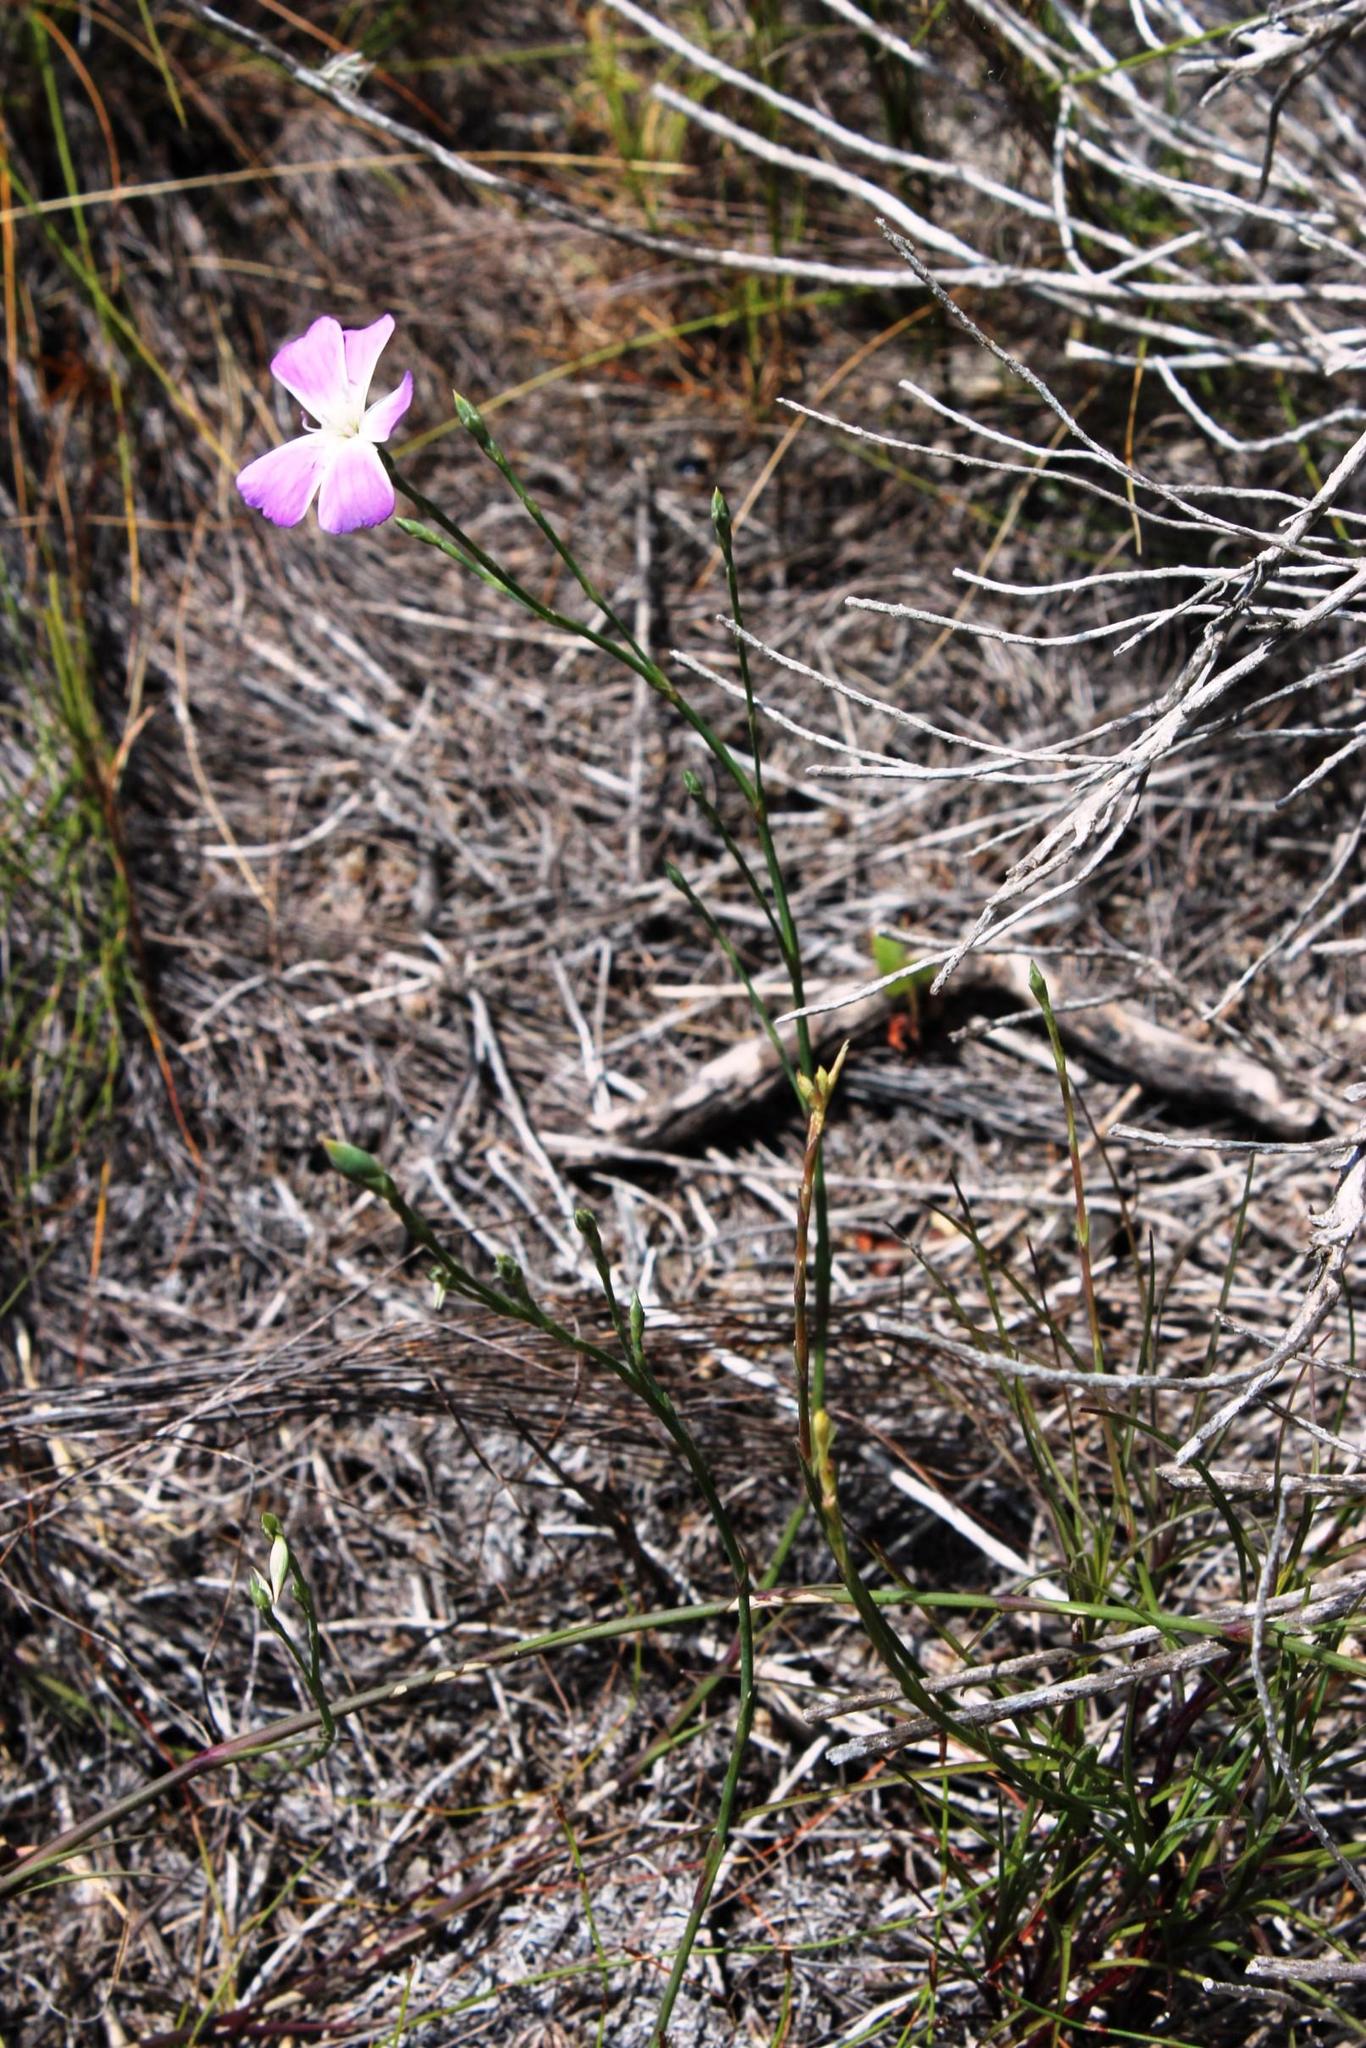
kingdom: Plantae
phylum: Tracheophyta
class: Magnoliopsida
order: Caryophyllales
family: Caryophyllaceae
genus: Dianthus
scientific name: Dianthus albens
